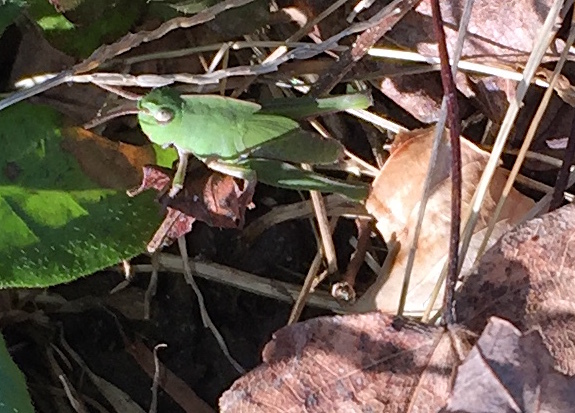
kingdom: Animalia
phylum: Arthropoda
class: Insecta
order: Orthoptera
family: Acrididae
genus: Chortophaga
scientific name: Chortophaga viridifasciata
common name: Green-striped grasshopper
